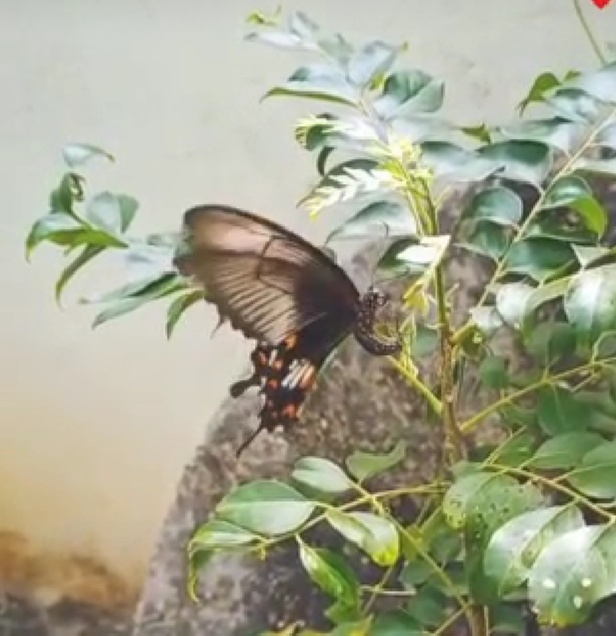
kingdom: Animalia
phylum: Arthropoda
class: Insecta
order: Lepidoptera
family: Papilionidae
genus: Papilio
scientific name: Papilio polytes
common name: Common mormon
